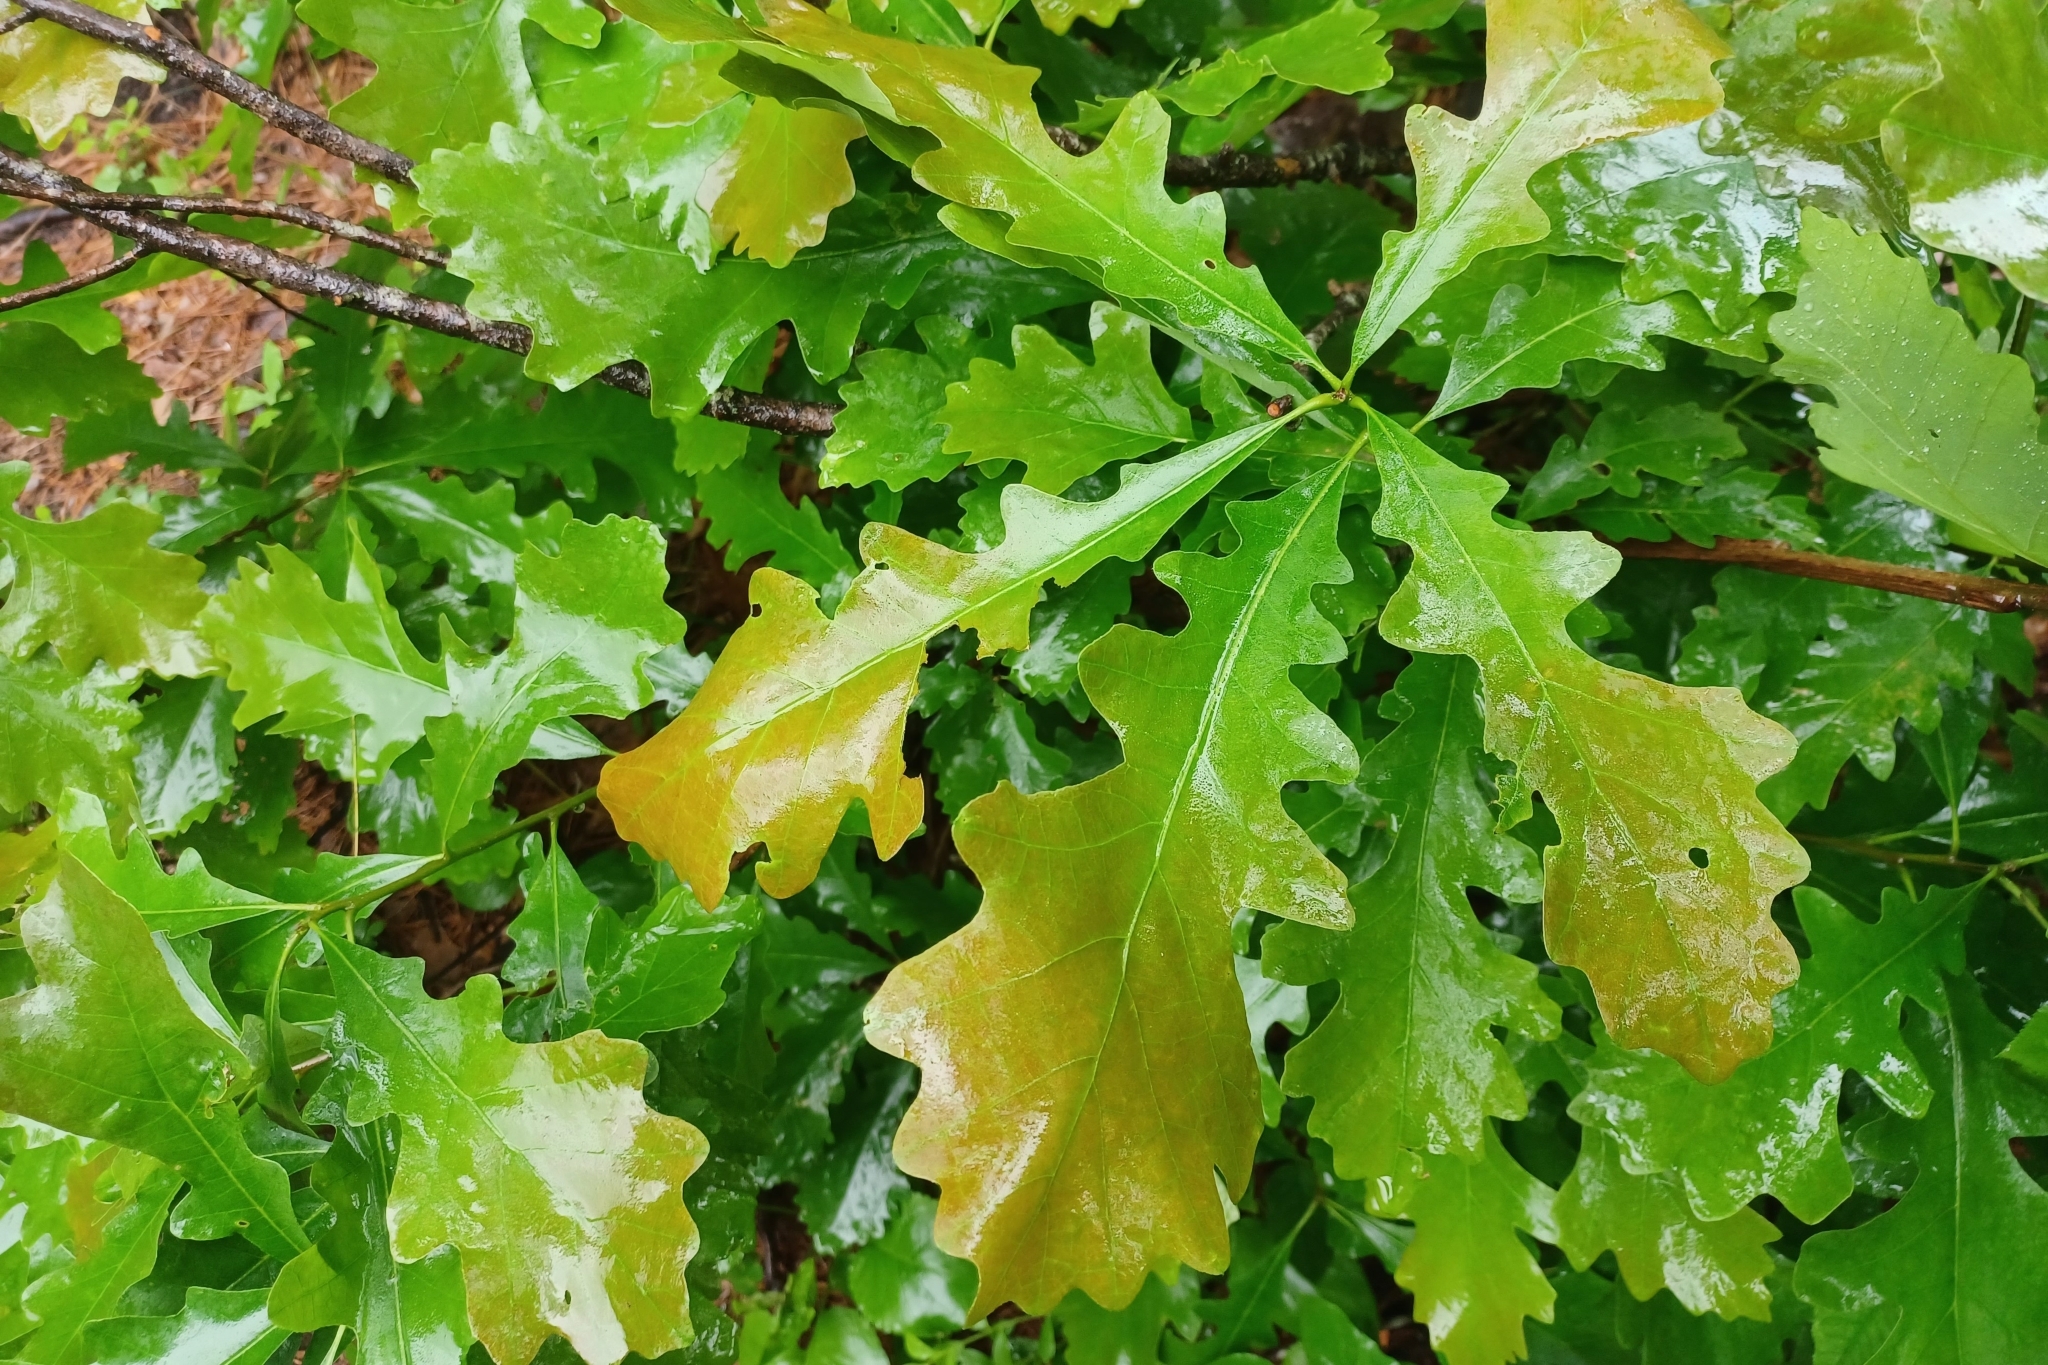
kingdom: Plantae
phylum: Tracheophyta
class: Magnoliopsida
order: Fagales
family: Fagaceae
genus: Quercus
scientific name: Quercus macrocarpa
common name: Bur oak
